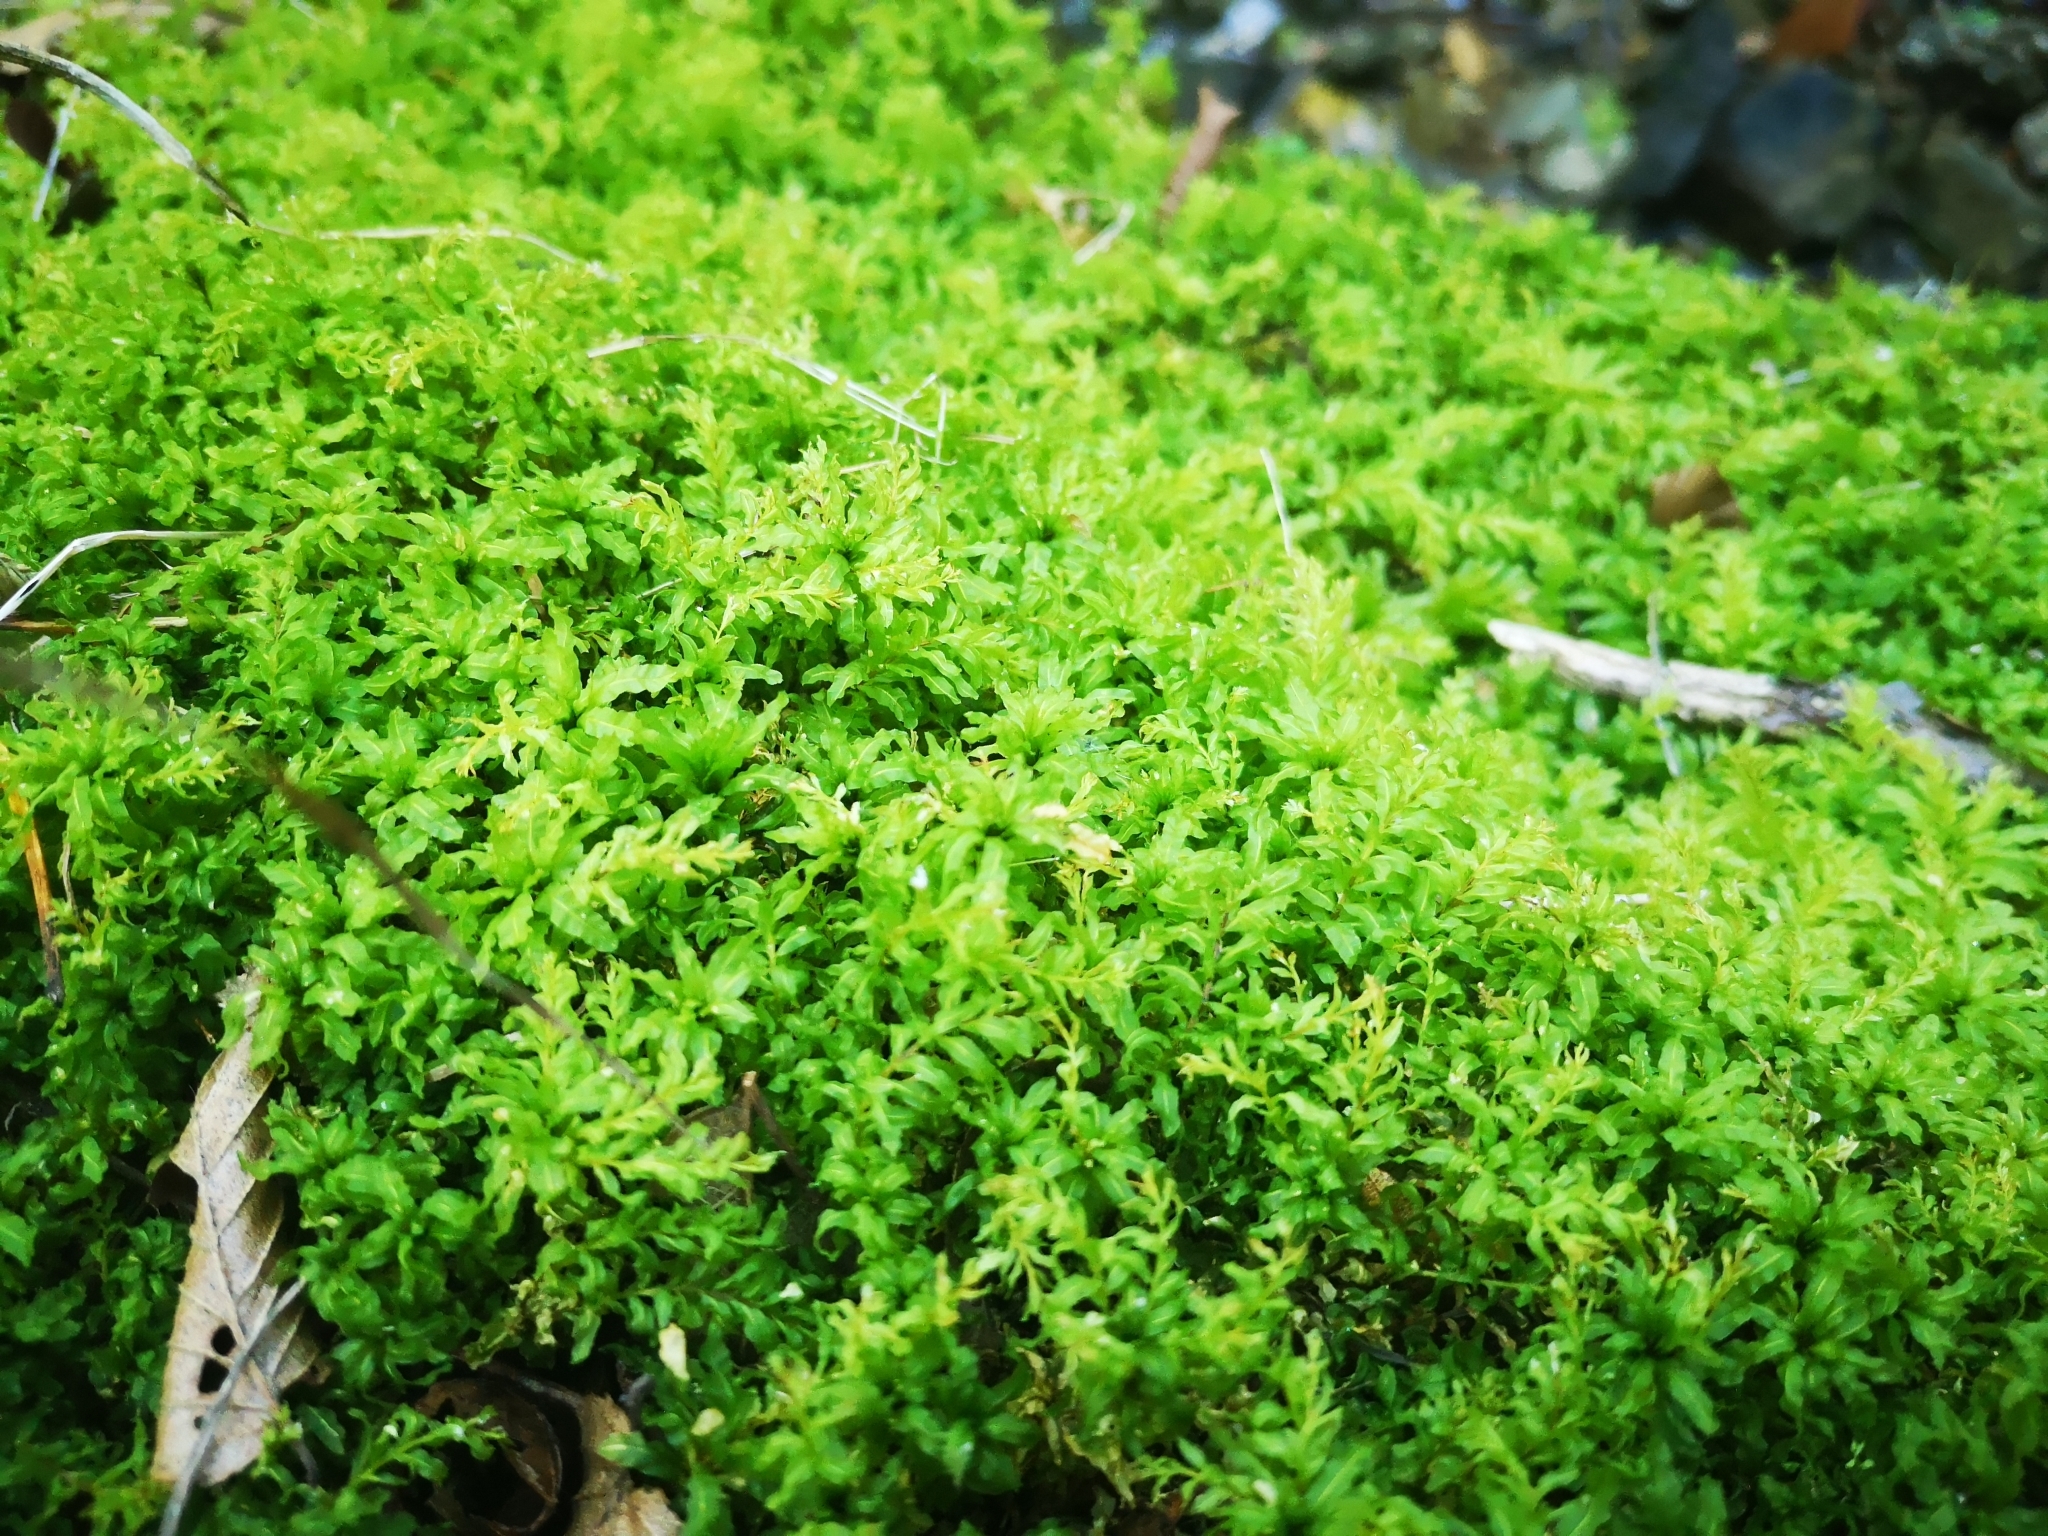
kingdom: Plantae
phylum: Bryophyta
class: Bryopsida
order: Bryales
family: Mniaceae
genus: Plagiomnium
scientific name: Plagiomnium undulatum
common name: Hart's-tongue thyme-moss
